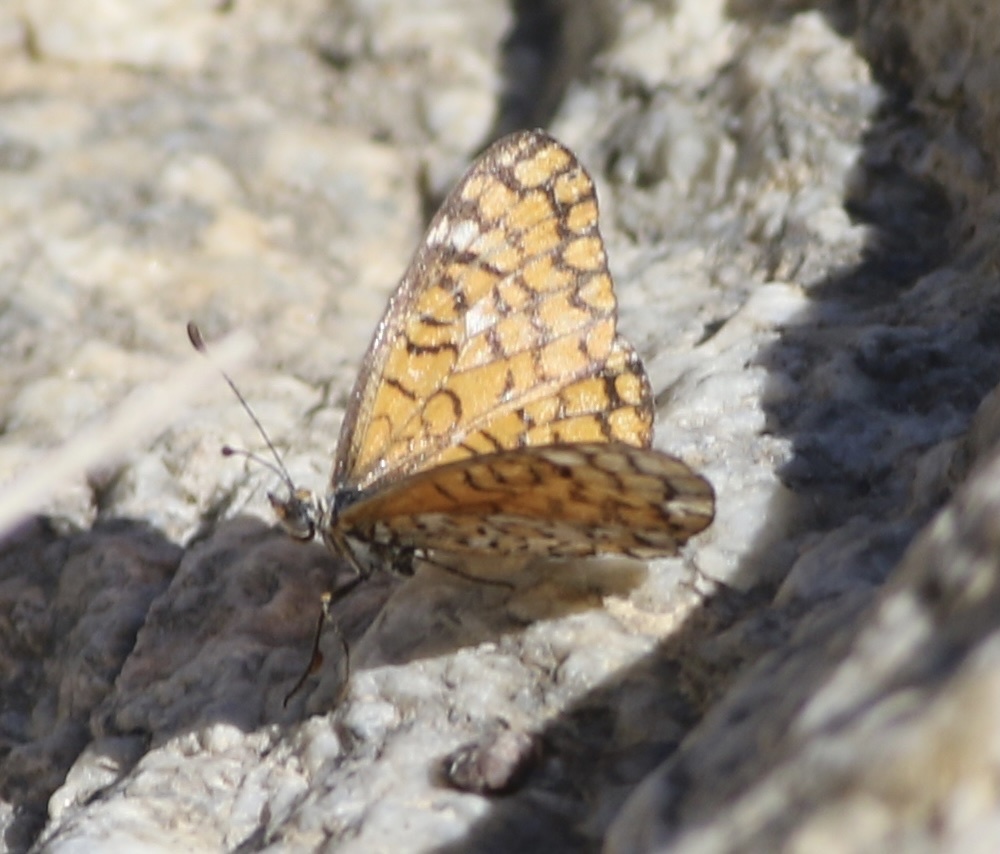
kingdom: Animalia
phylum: Arthropoda
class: Insecta
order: Lepidoptera
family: Nymphalidae
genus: Dymasia
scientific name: Dymasia dymas
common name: Tiny checkerspot
